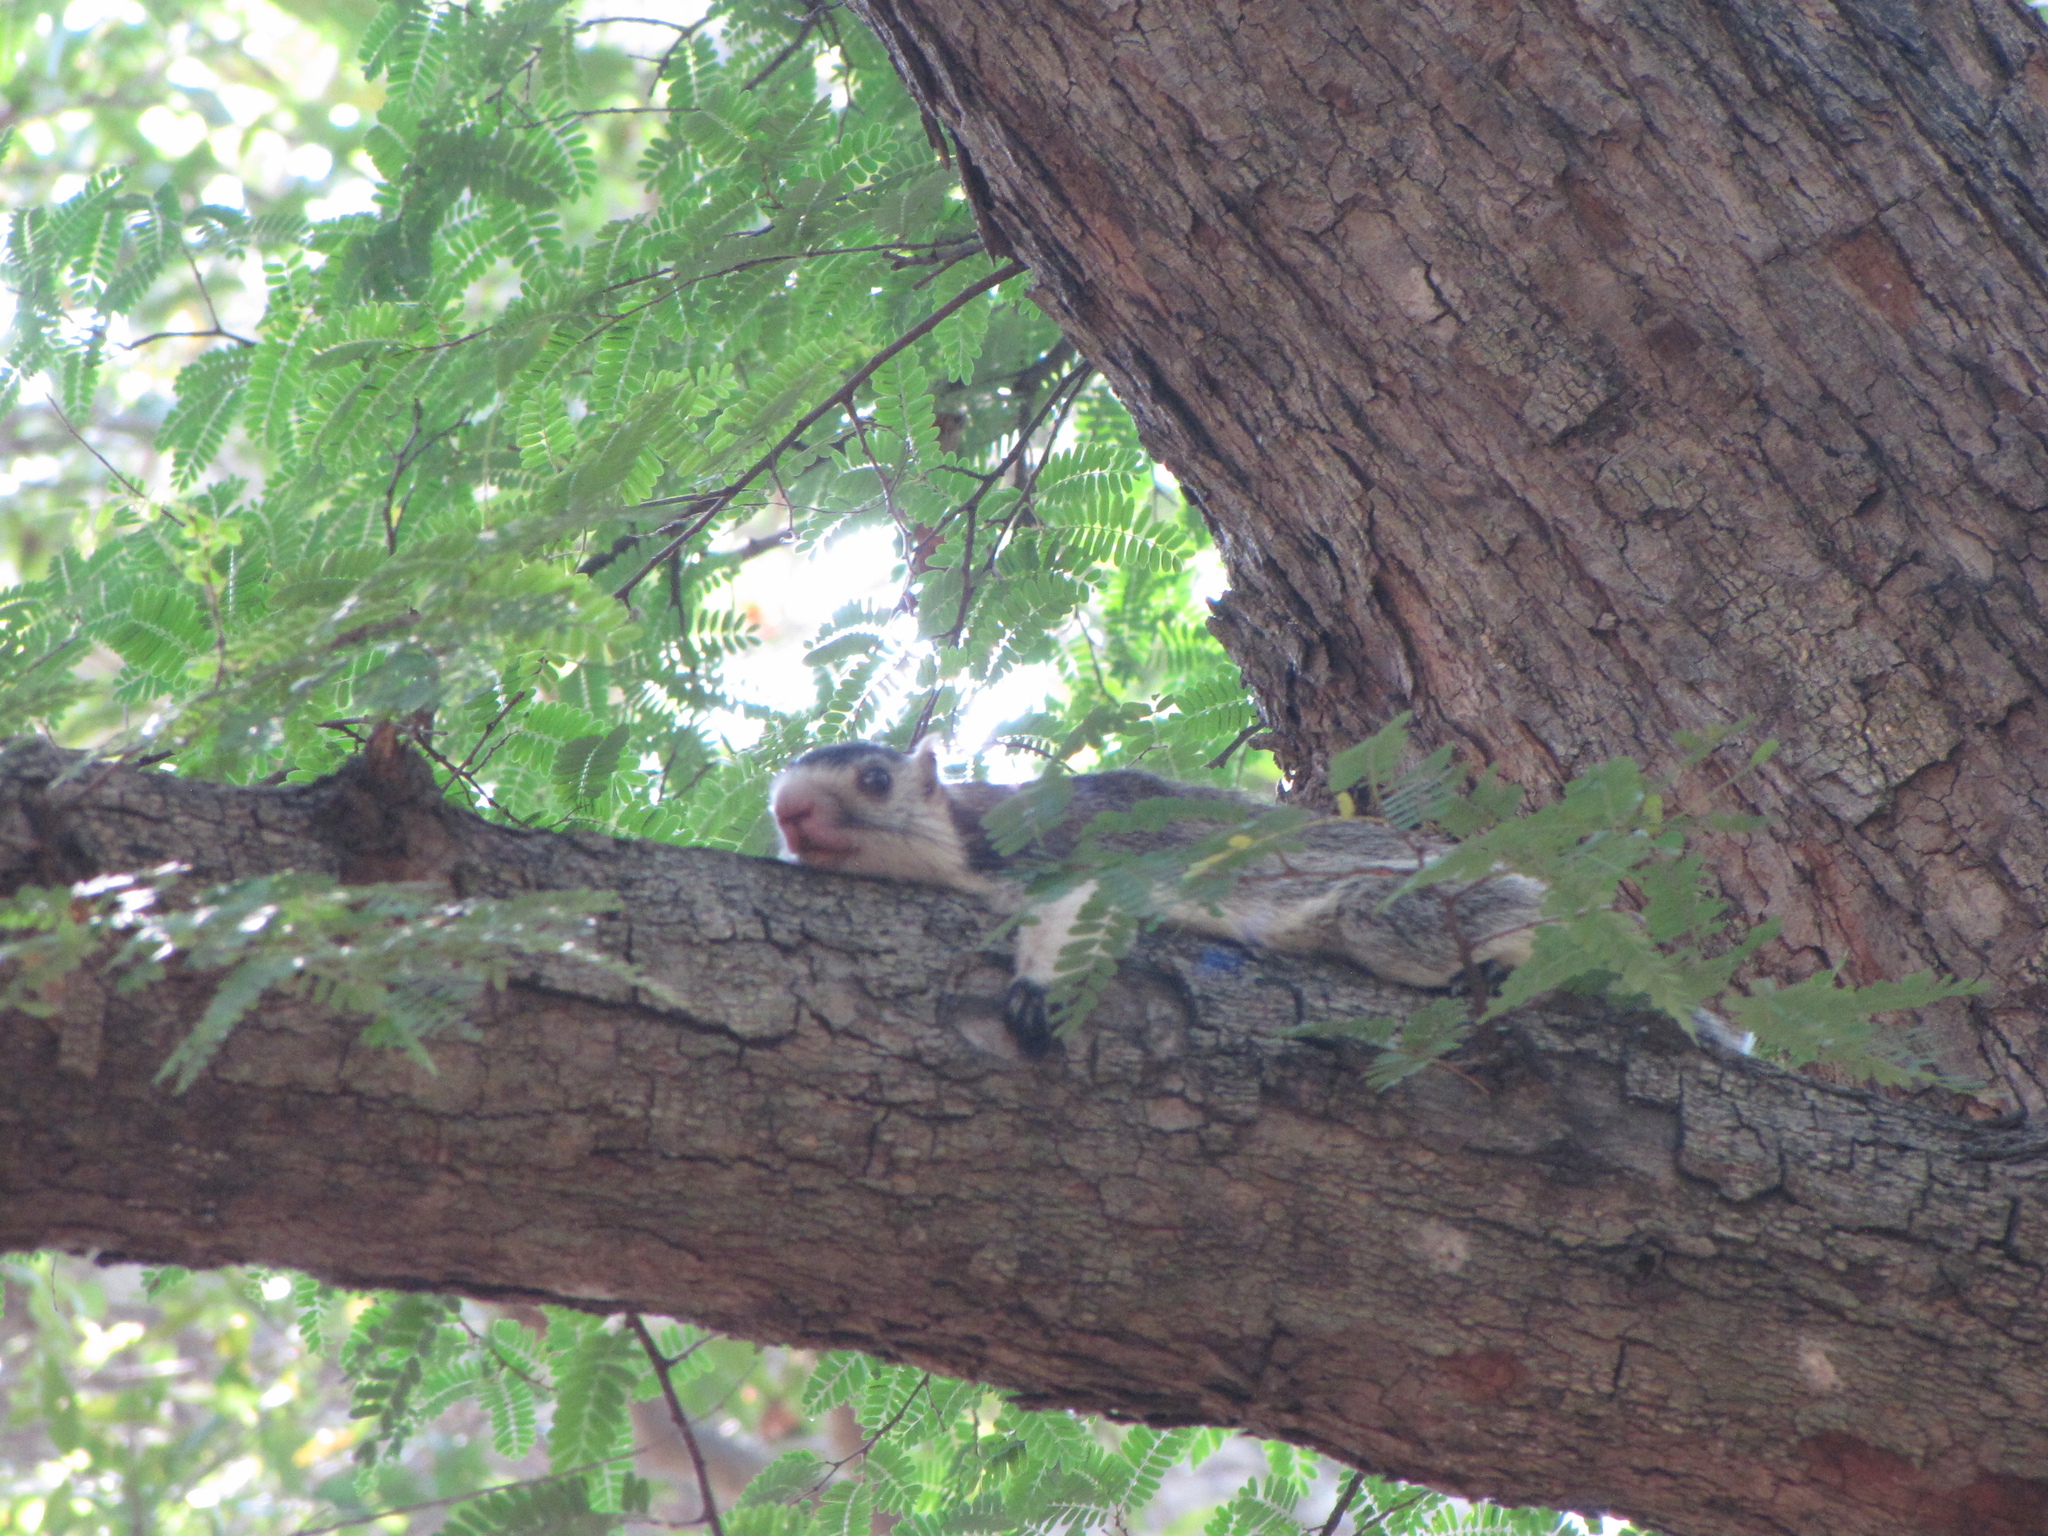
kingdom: Animalia
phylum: Chordata
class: Mammalia
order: Rodentia
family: Sciuridae
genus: Ratufa
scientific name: Ratufa macroura
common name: Sri lankan giant squirrel
